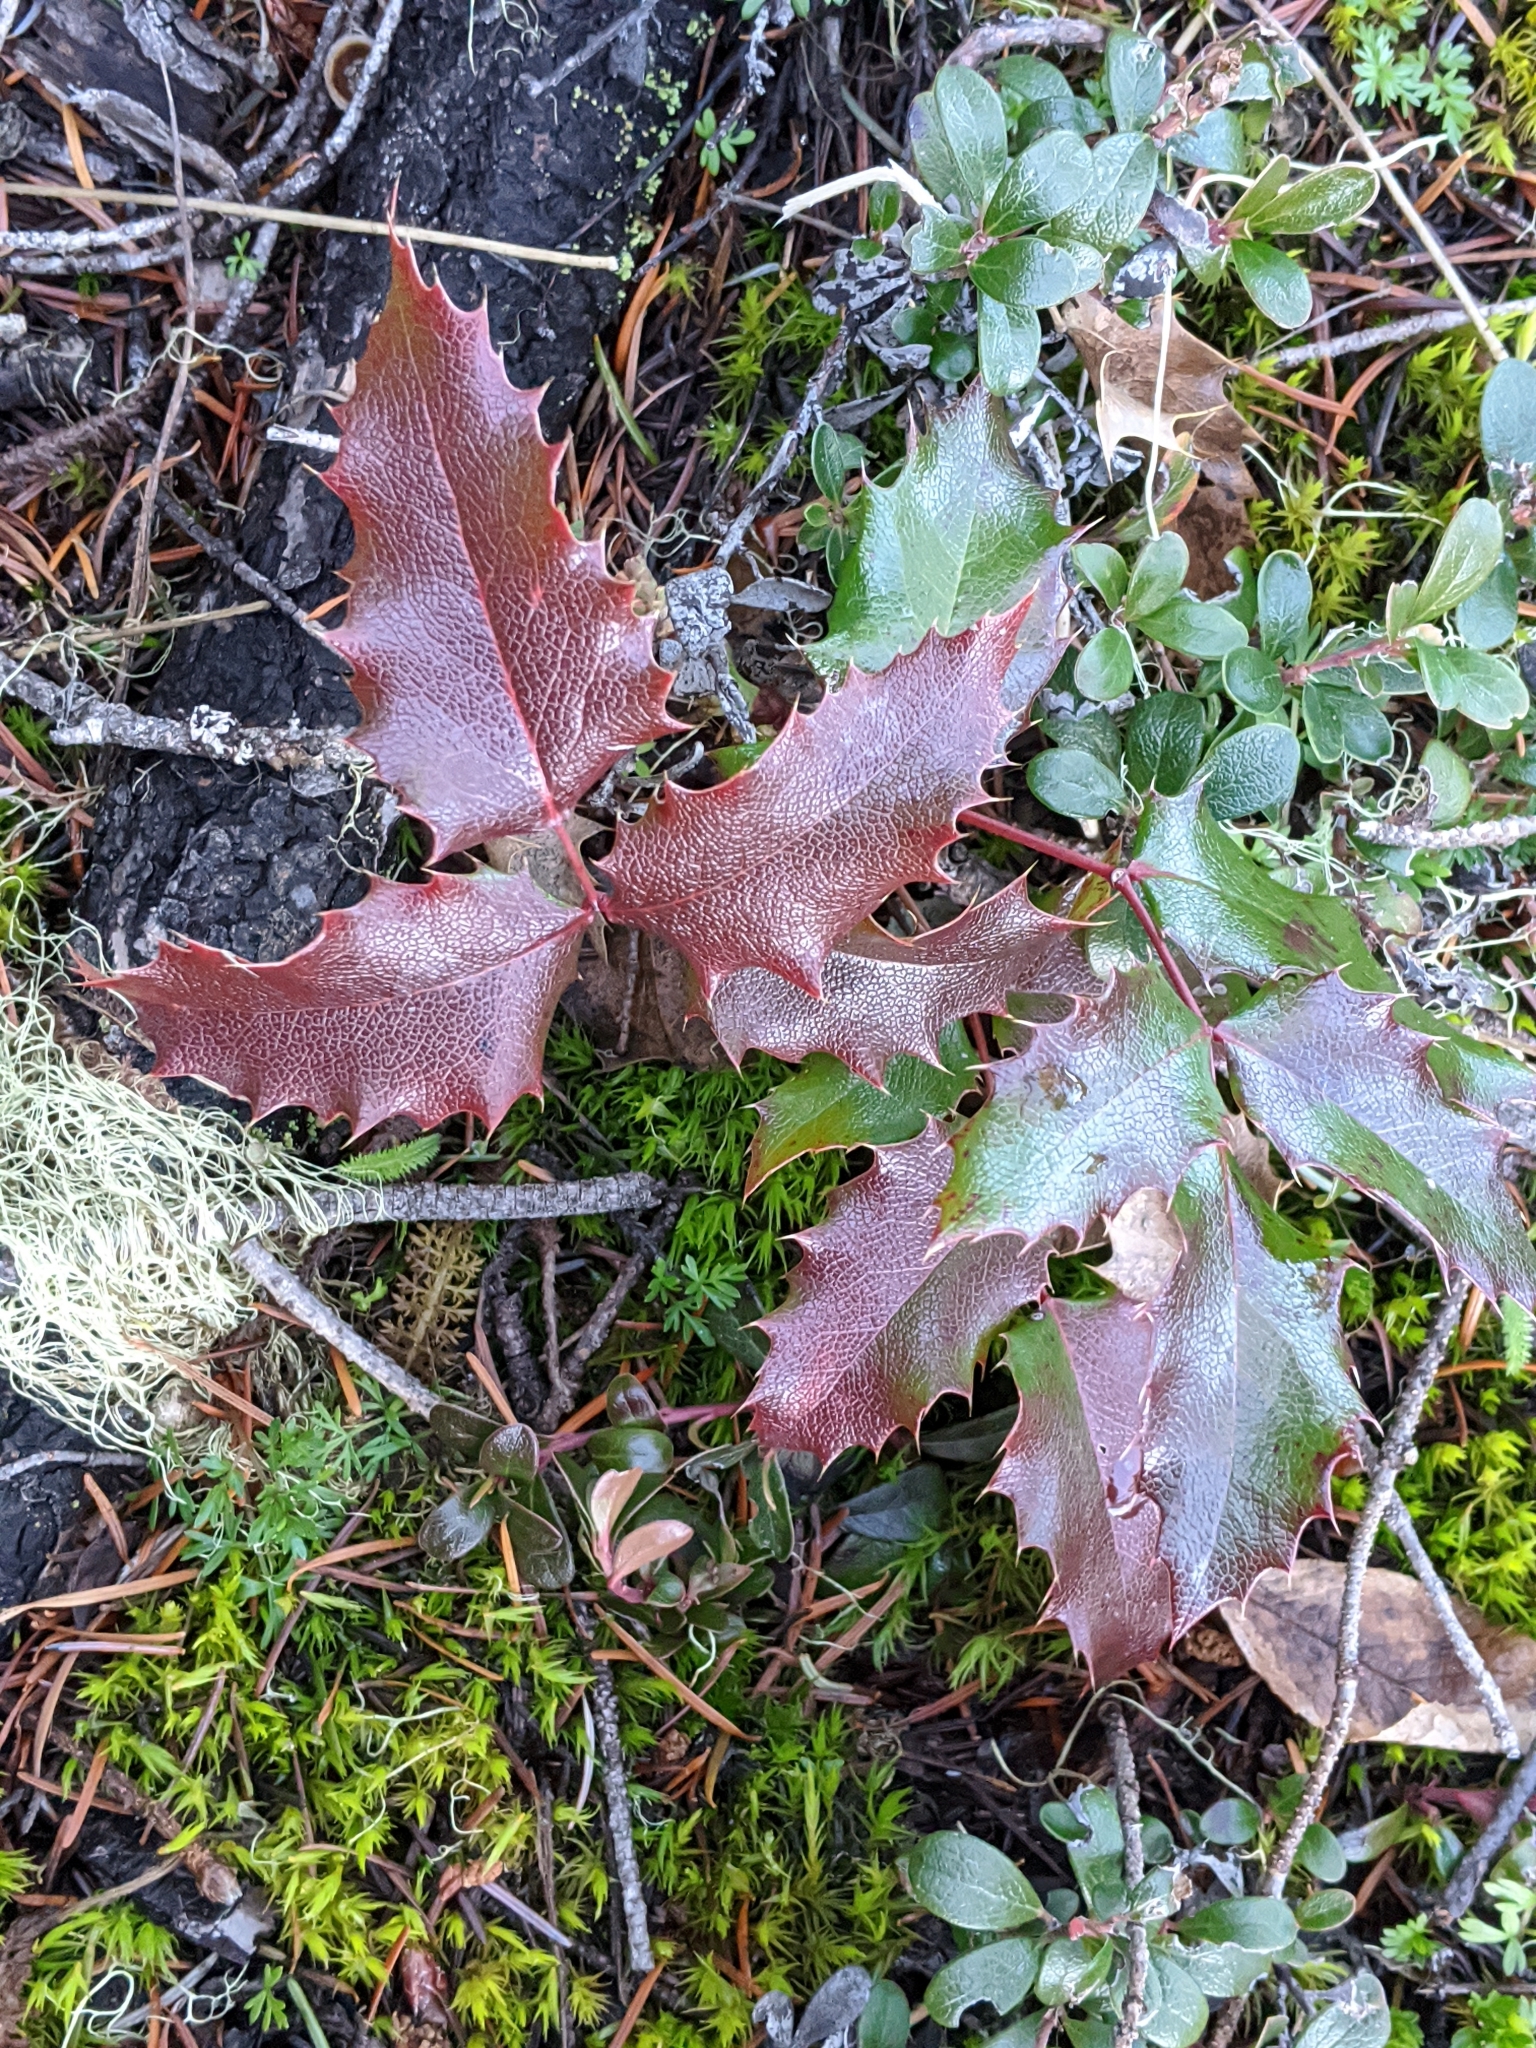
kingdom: Plantae
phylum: Tracheophyta
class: Magnoliopsida
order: Ranunculales
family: Berberidaceae
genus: Mahonia
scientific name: Mahonia aquifolium
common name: Oregon-grape
